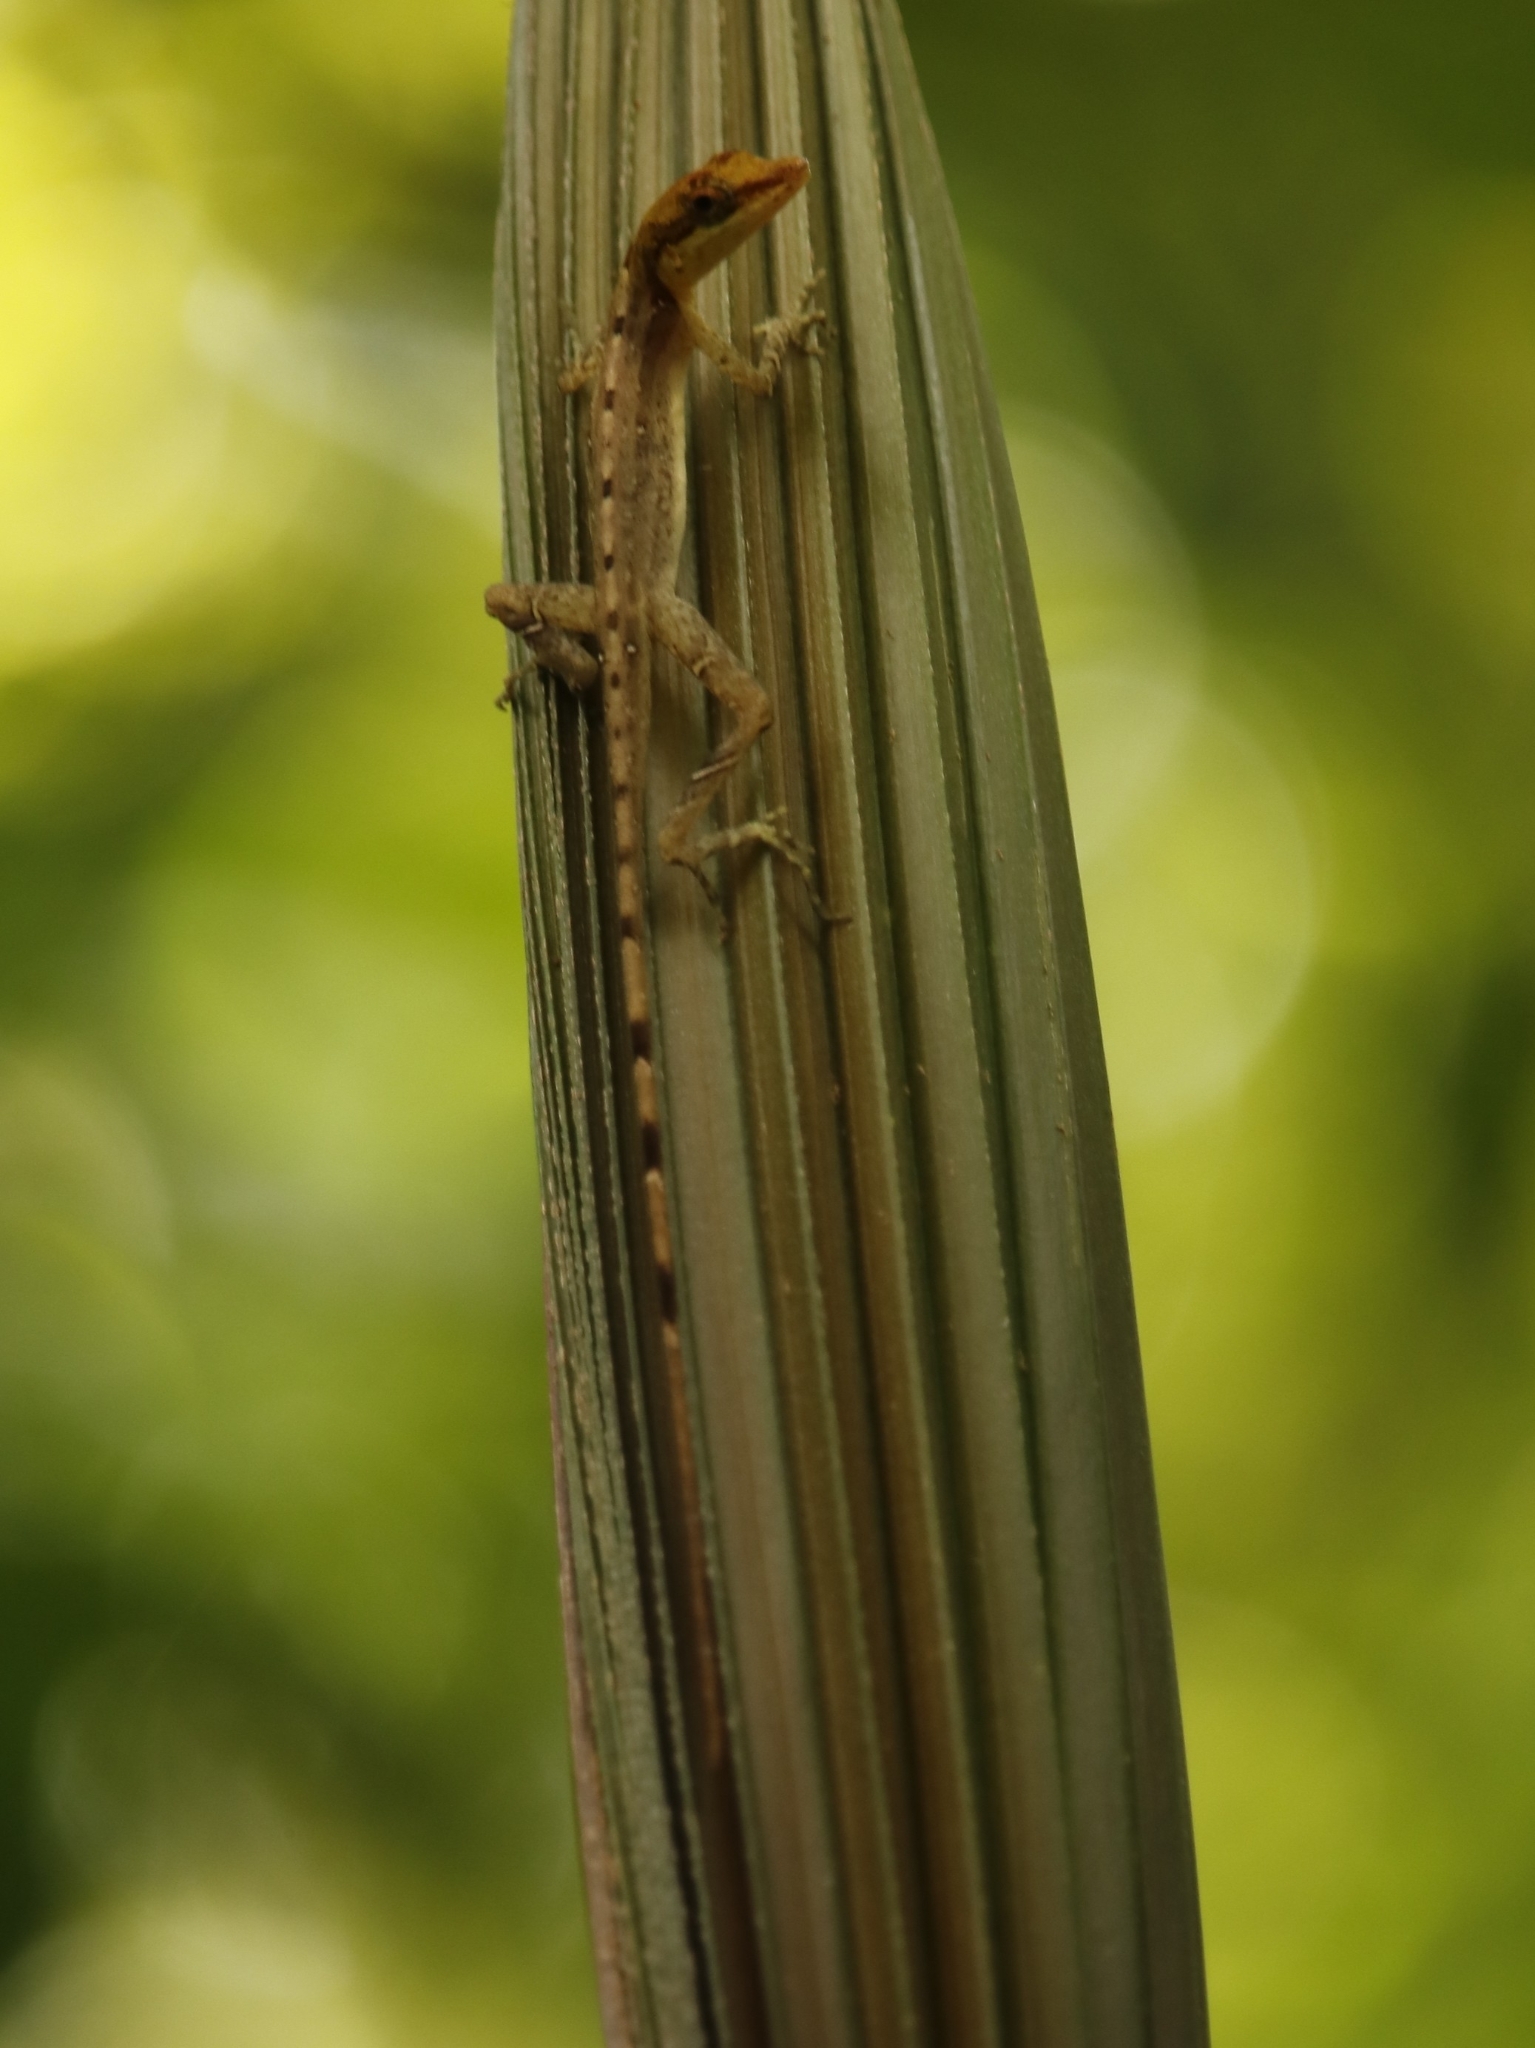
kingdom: Animalia
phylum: Chordata
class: Squamata
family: Dactyloidae
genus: Anolis
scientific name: Anolis limifrons
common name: Border anole
